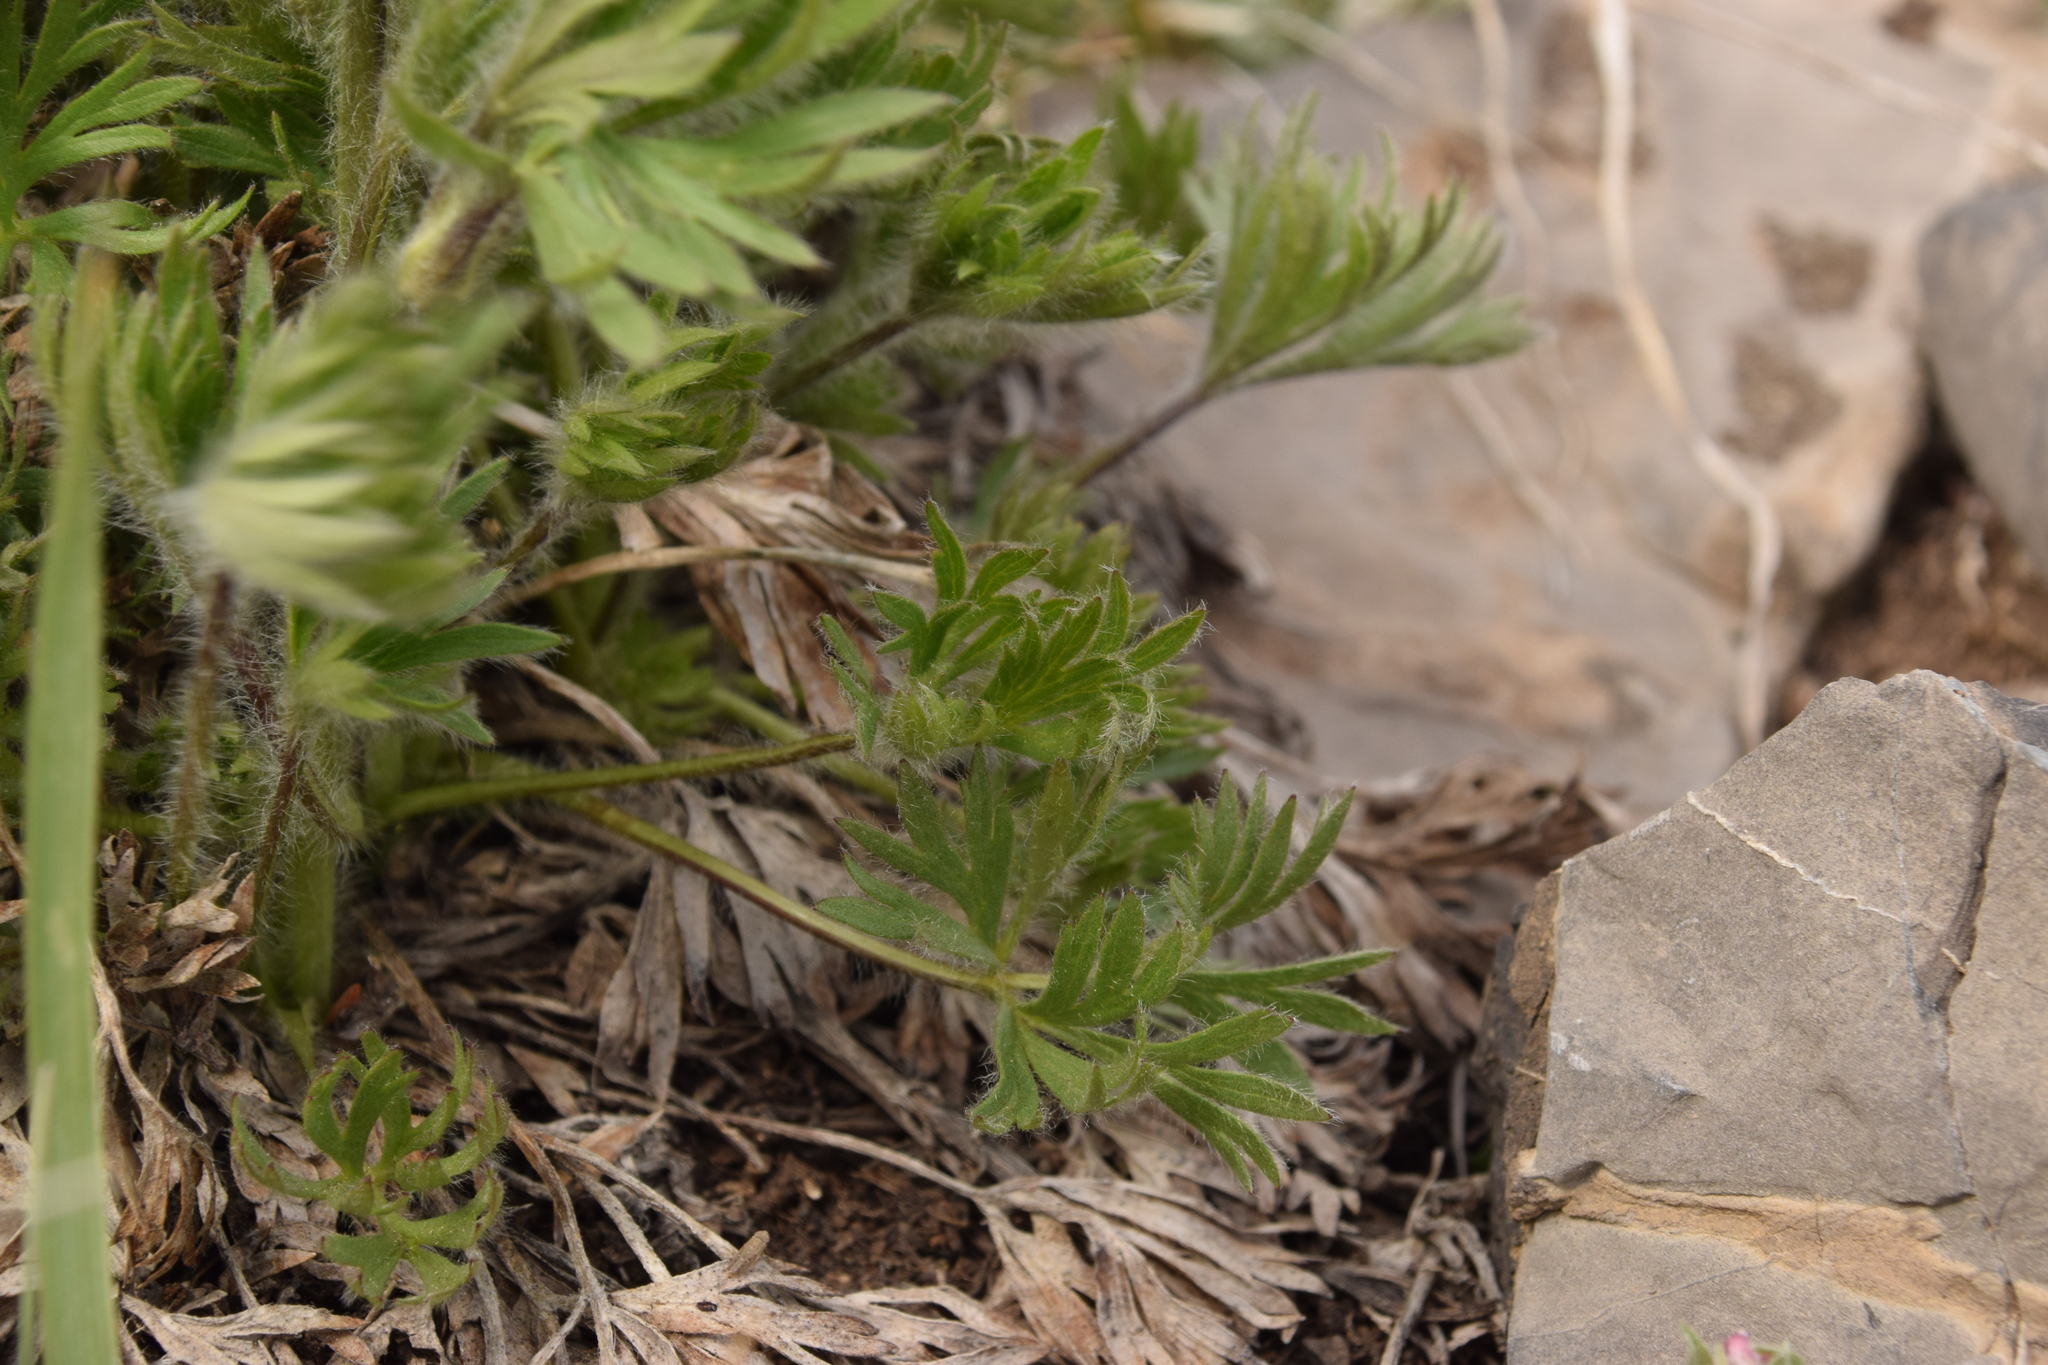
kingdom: Plantae
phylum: Tracheophyta
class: Magnoliopsida
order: Ranunculales
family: Ranunculaceae
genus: Anemone
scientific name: Anemone multifida
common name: Bird's-foot anemone
